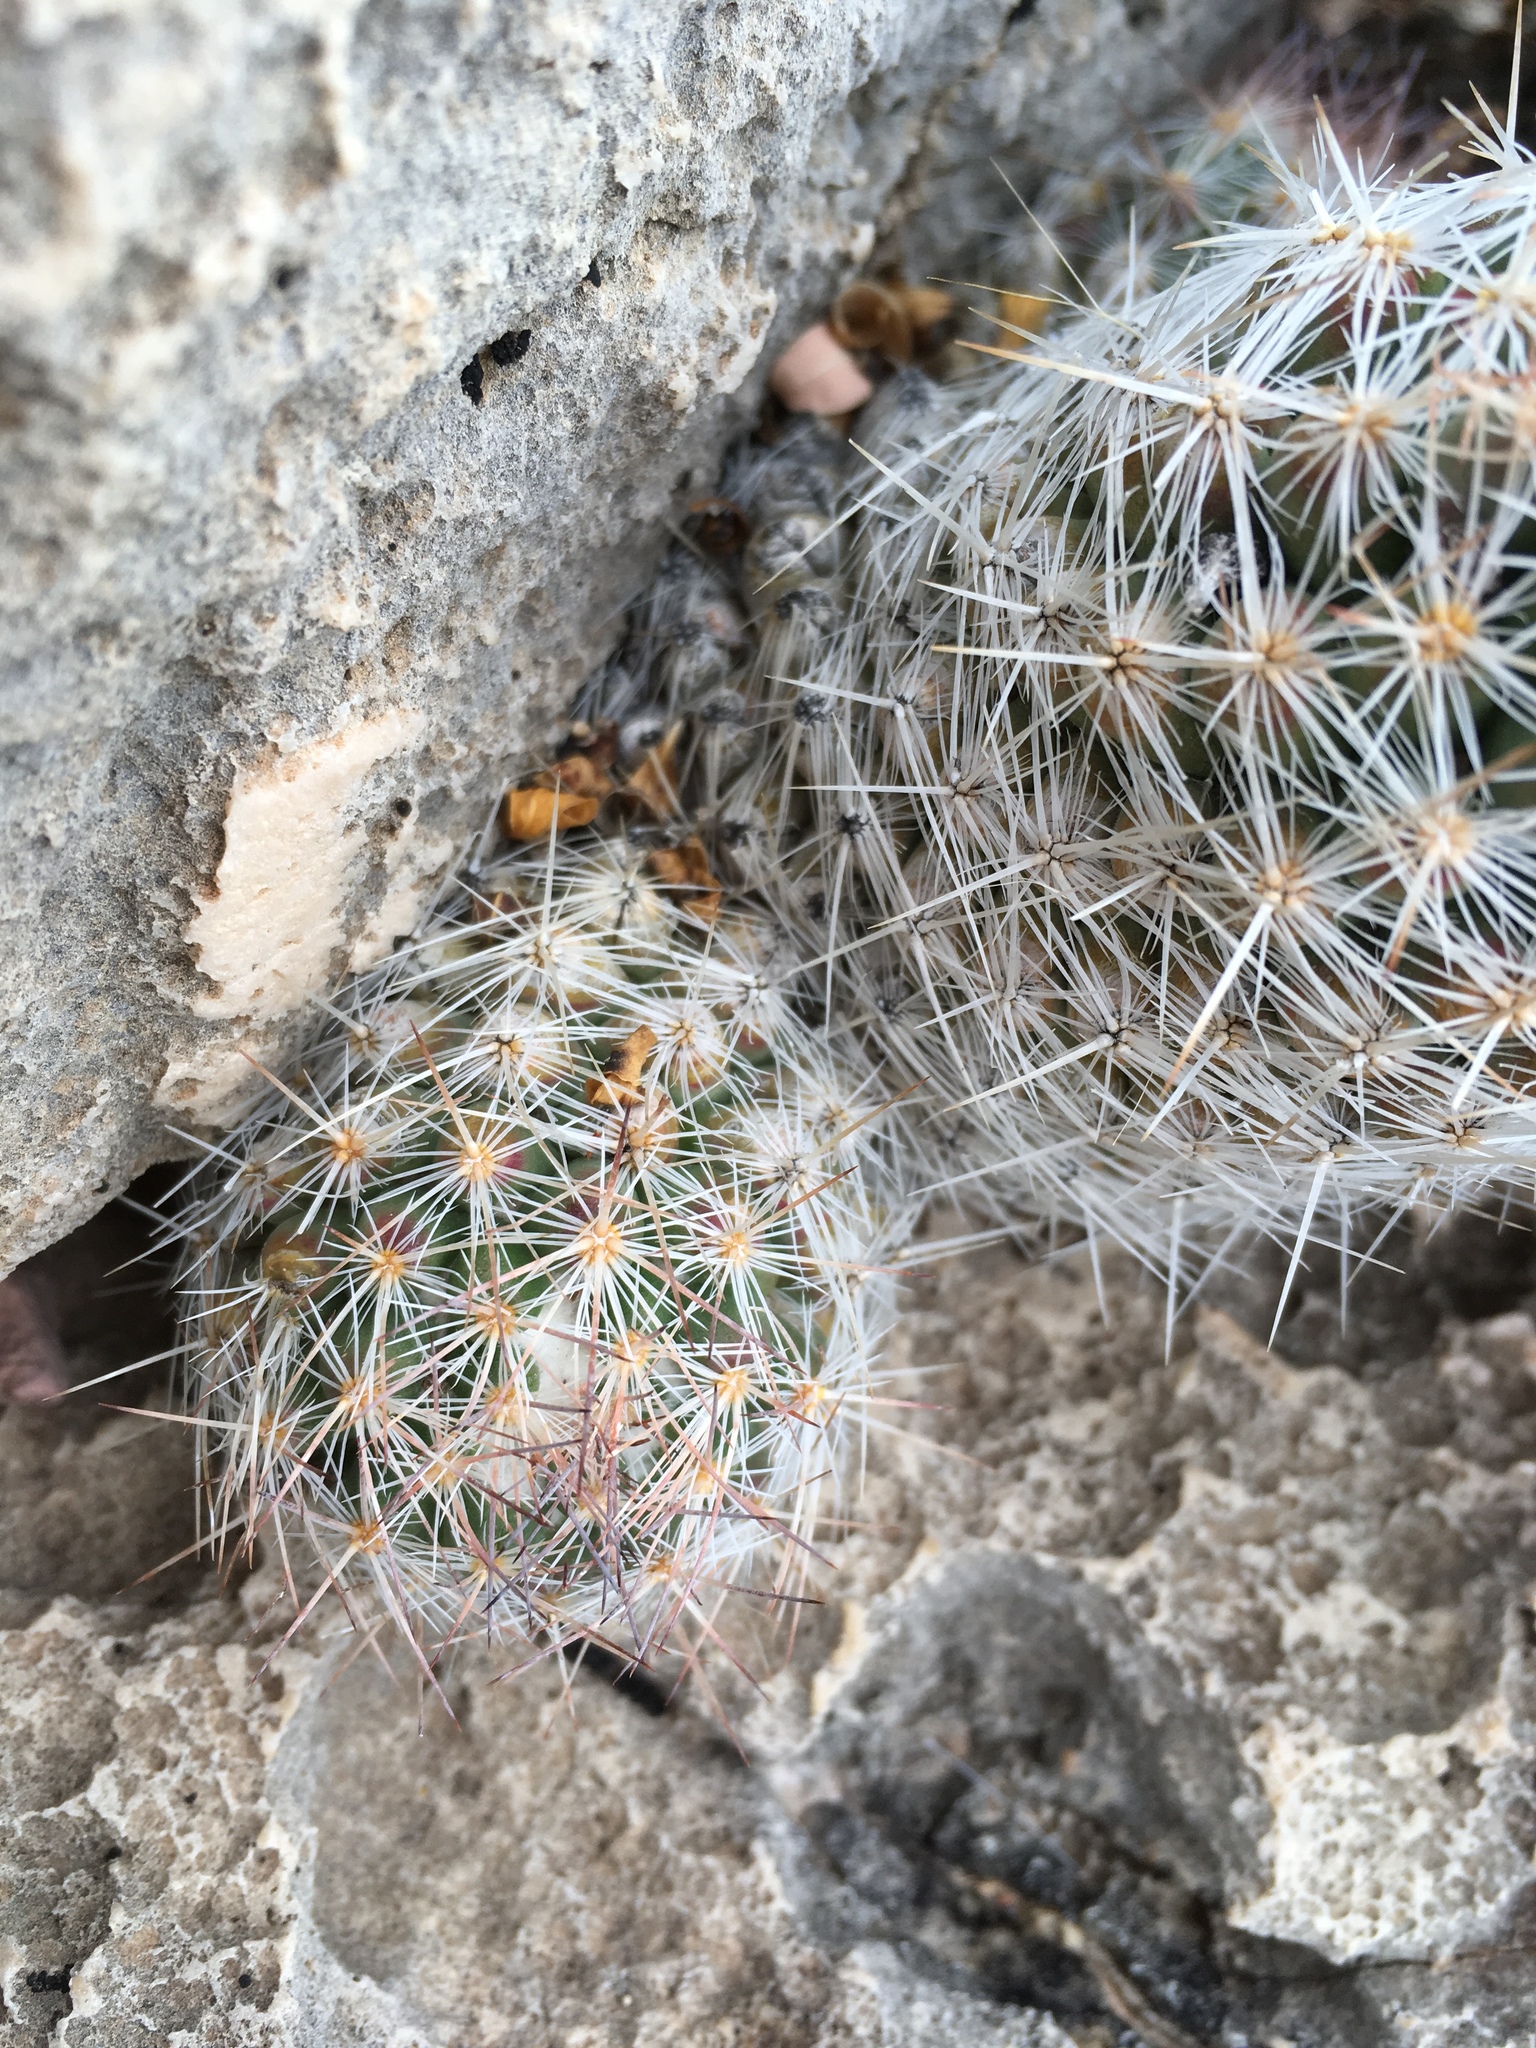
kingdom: Plantae
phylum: Tracheophyta
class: Magnoliopsida
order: Caryophyllales
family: Cactaceae
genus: Pelecyphora
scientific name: Pelecyphora tuberculosa
